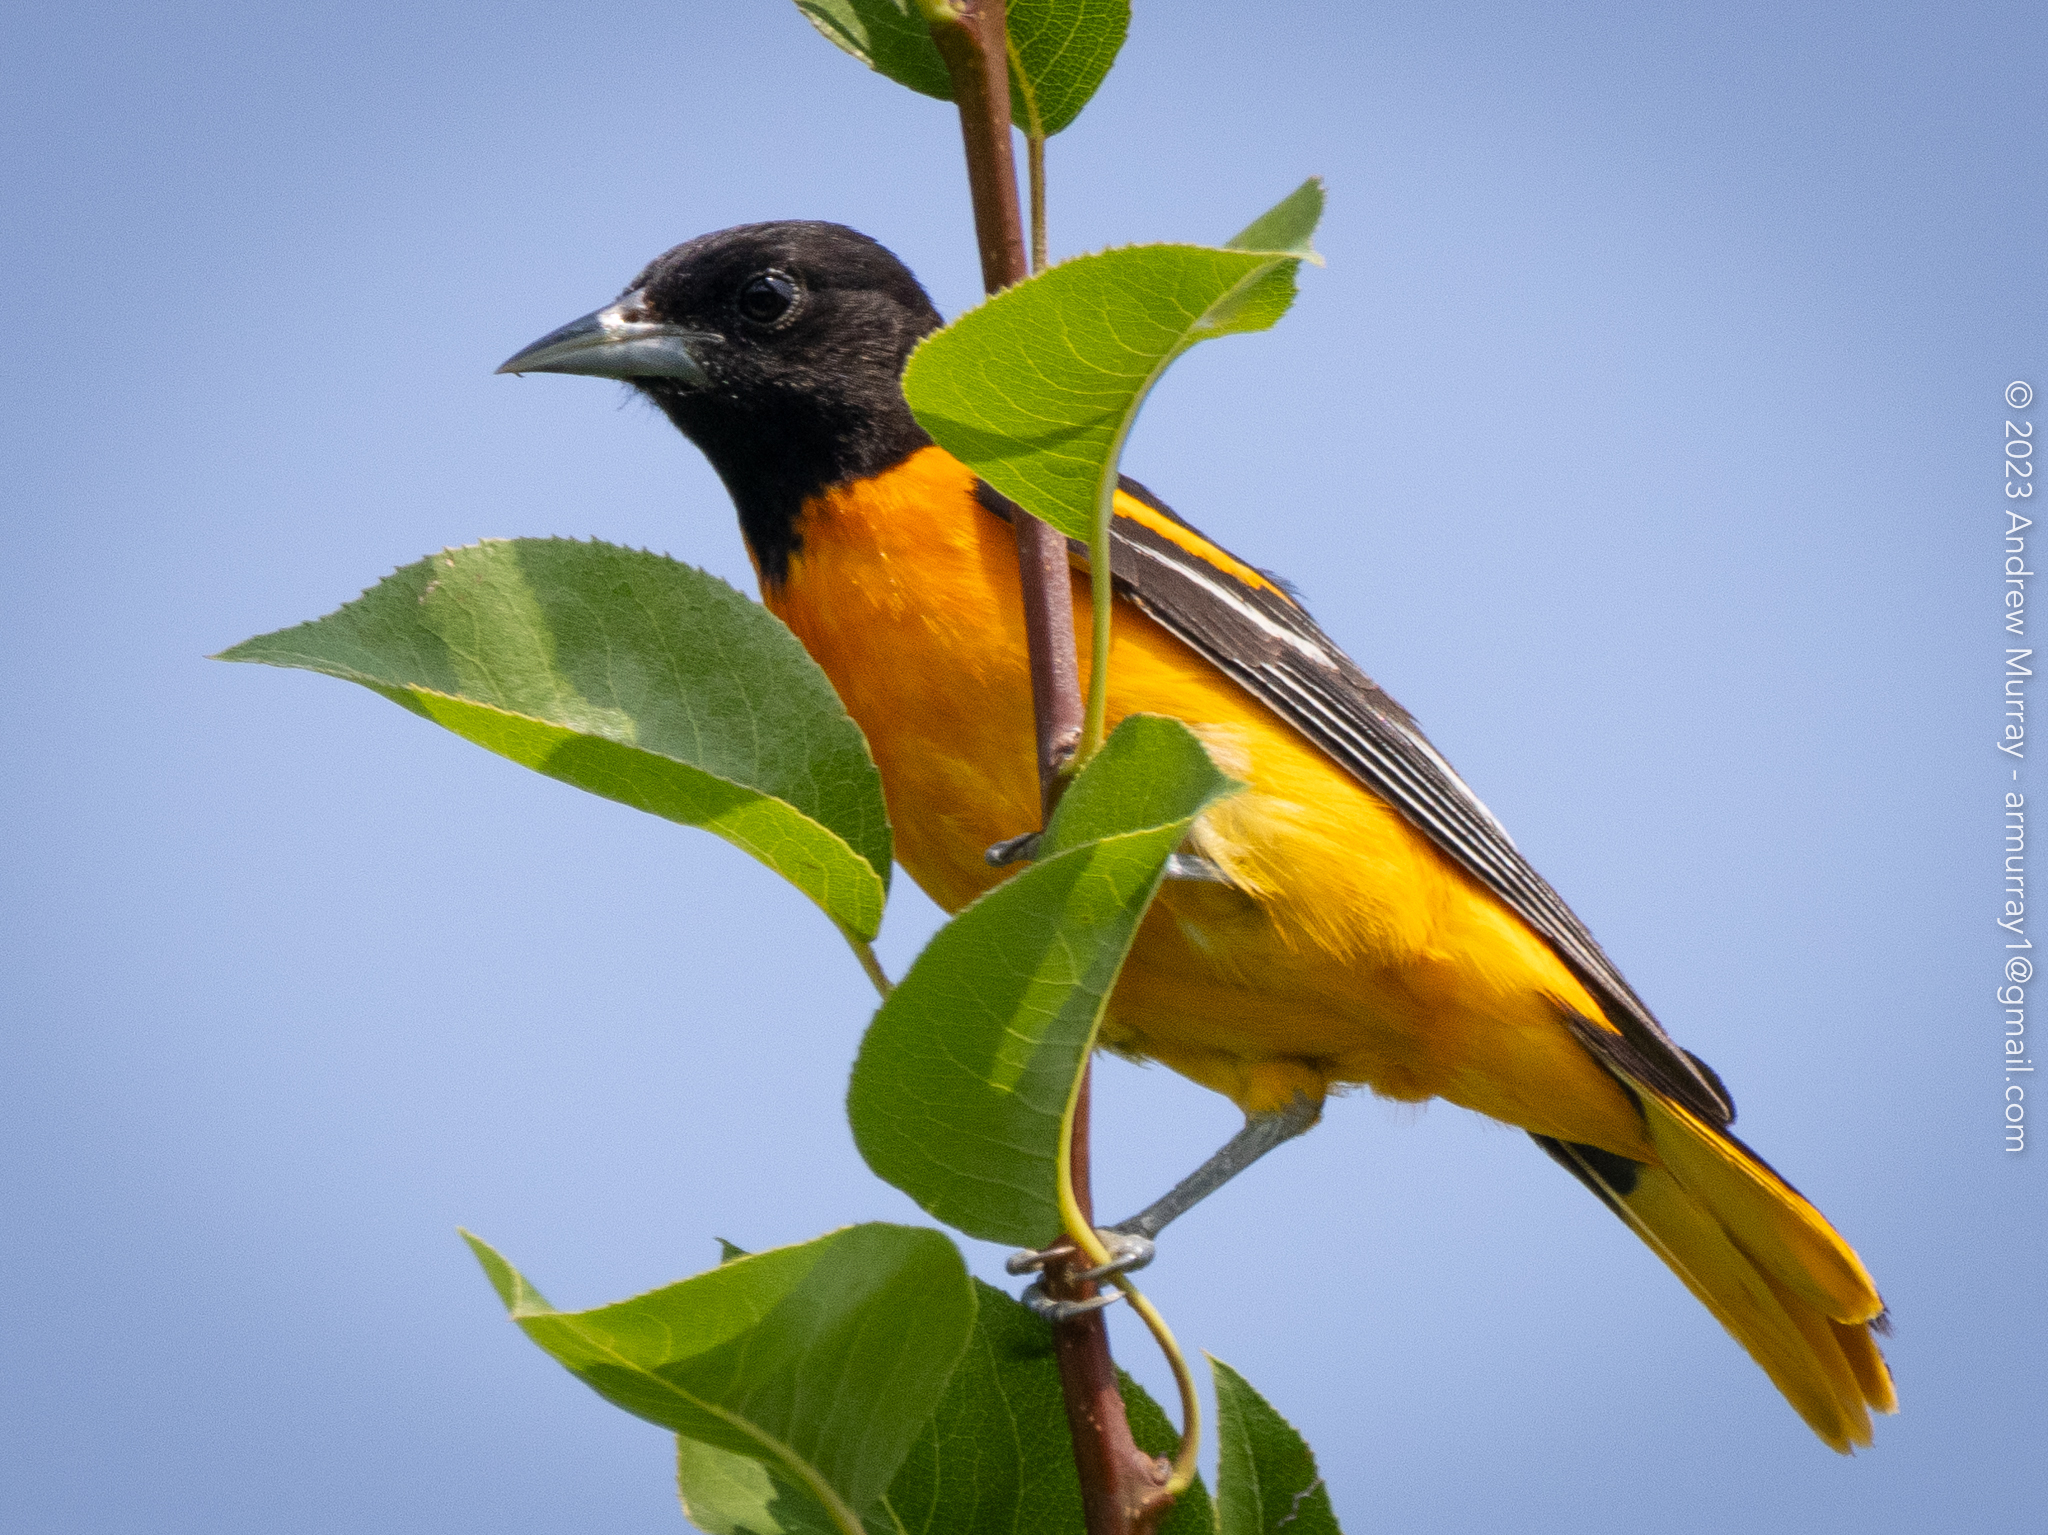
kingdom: Animalia
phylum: Chordata
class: Aves
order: Passeriformes
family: Icteridae
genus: Icterus
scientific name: Icterus galbula
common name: Baltimore oriole
